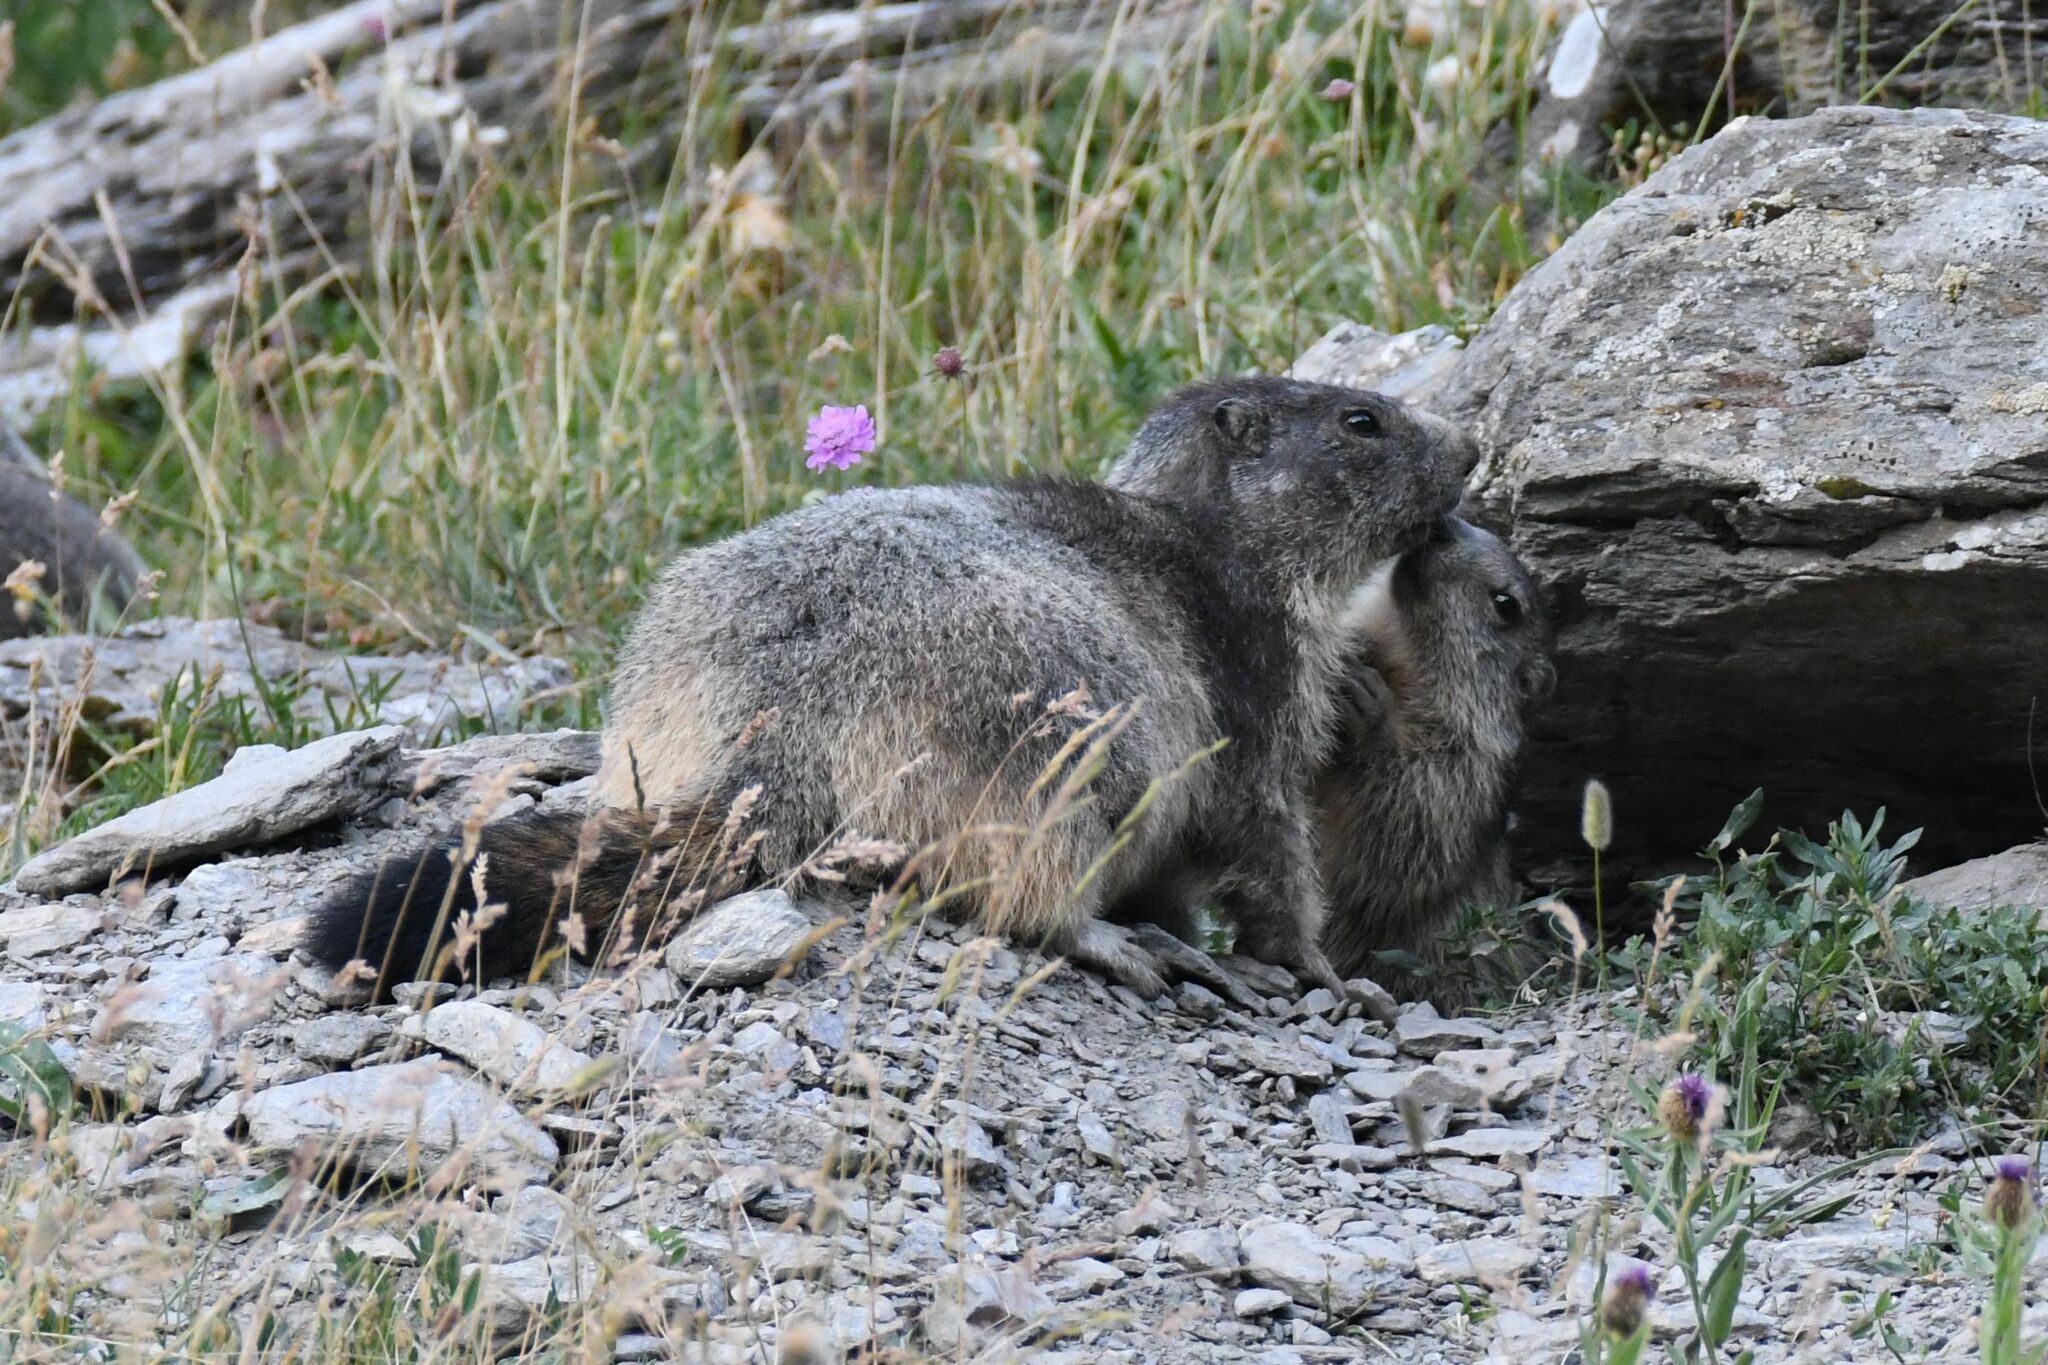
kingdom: Animalia
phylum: Chordata
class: Mammalia
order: Rodentia
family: Sciuridae
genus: Marmota
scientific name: Marmota marmota
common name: Alpine marmot
